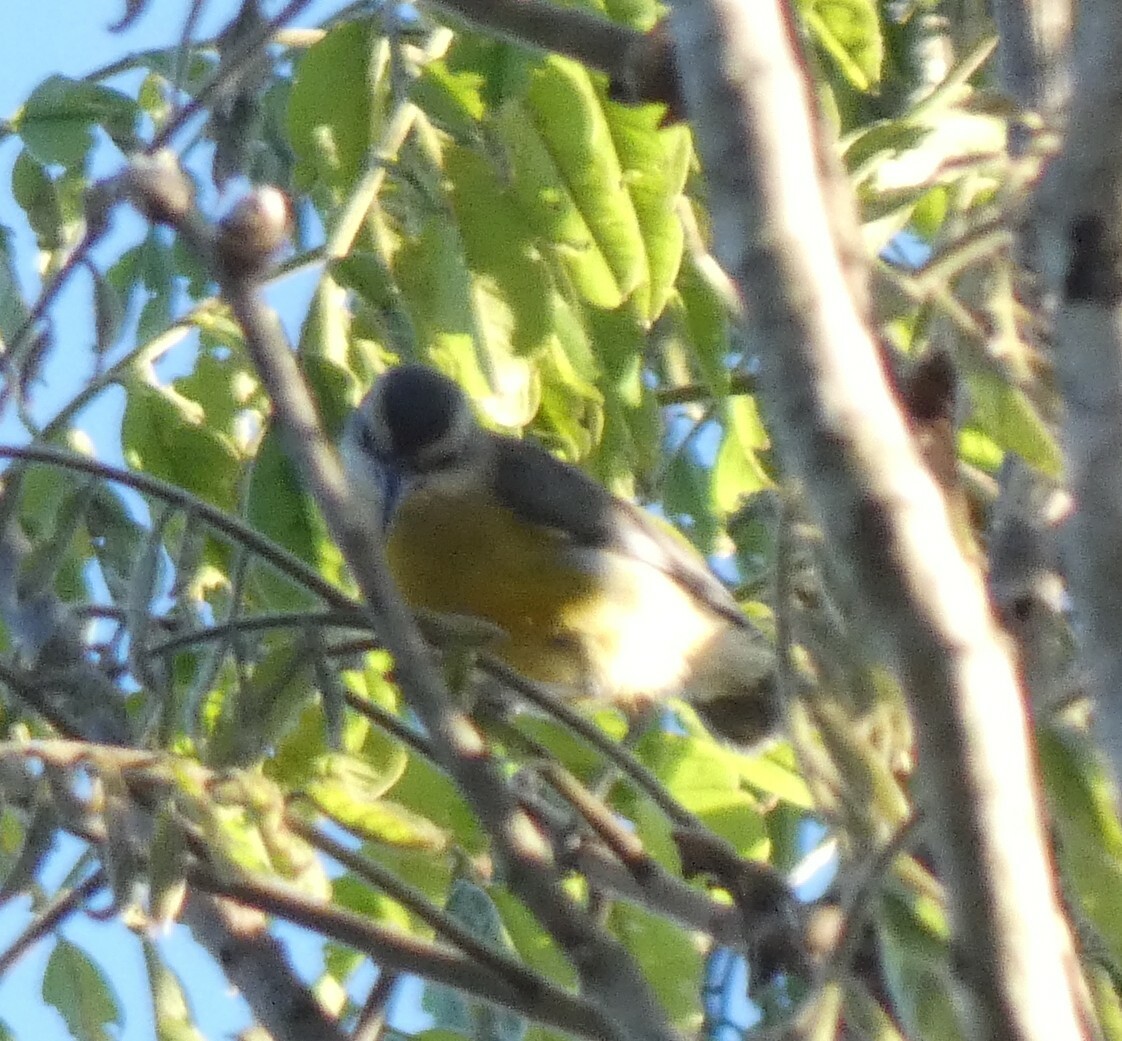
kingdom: Animalia
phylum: Chordata
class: Aves
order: Passeriformes
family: Thraupidae
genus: Coereba
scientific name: Coereba flaveola
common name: Bananaquit
